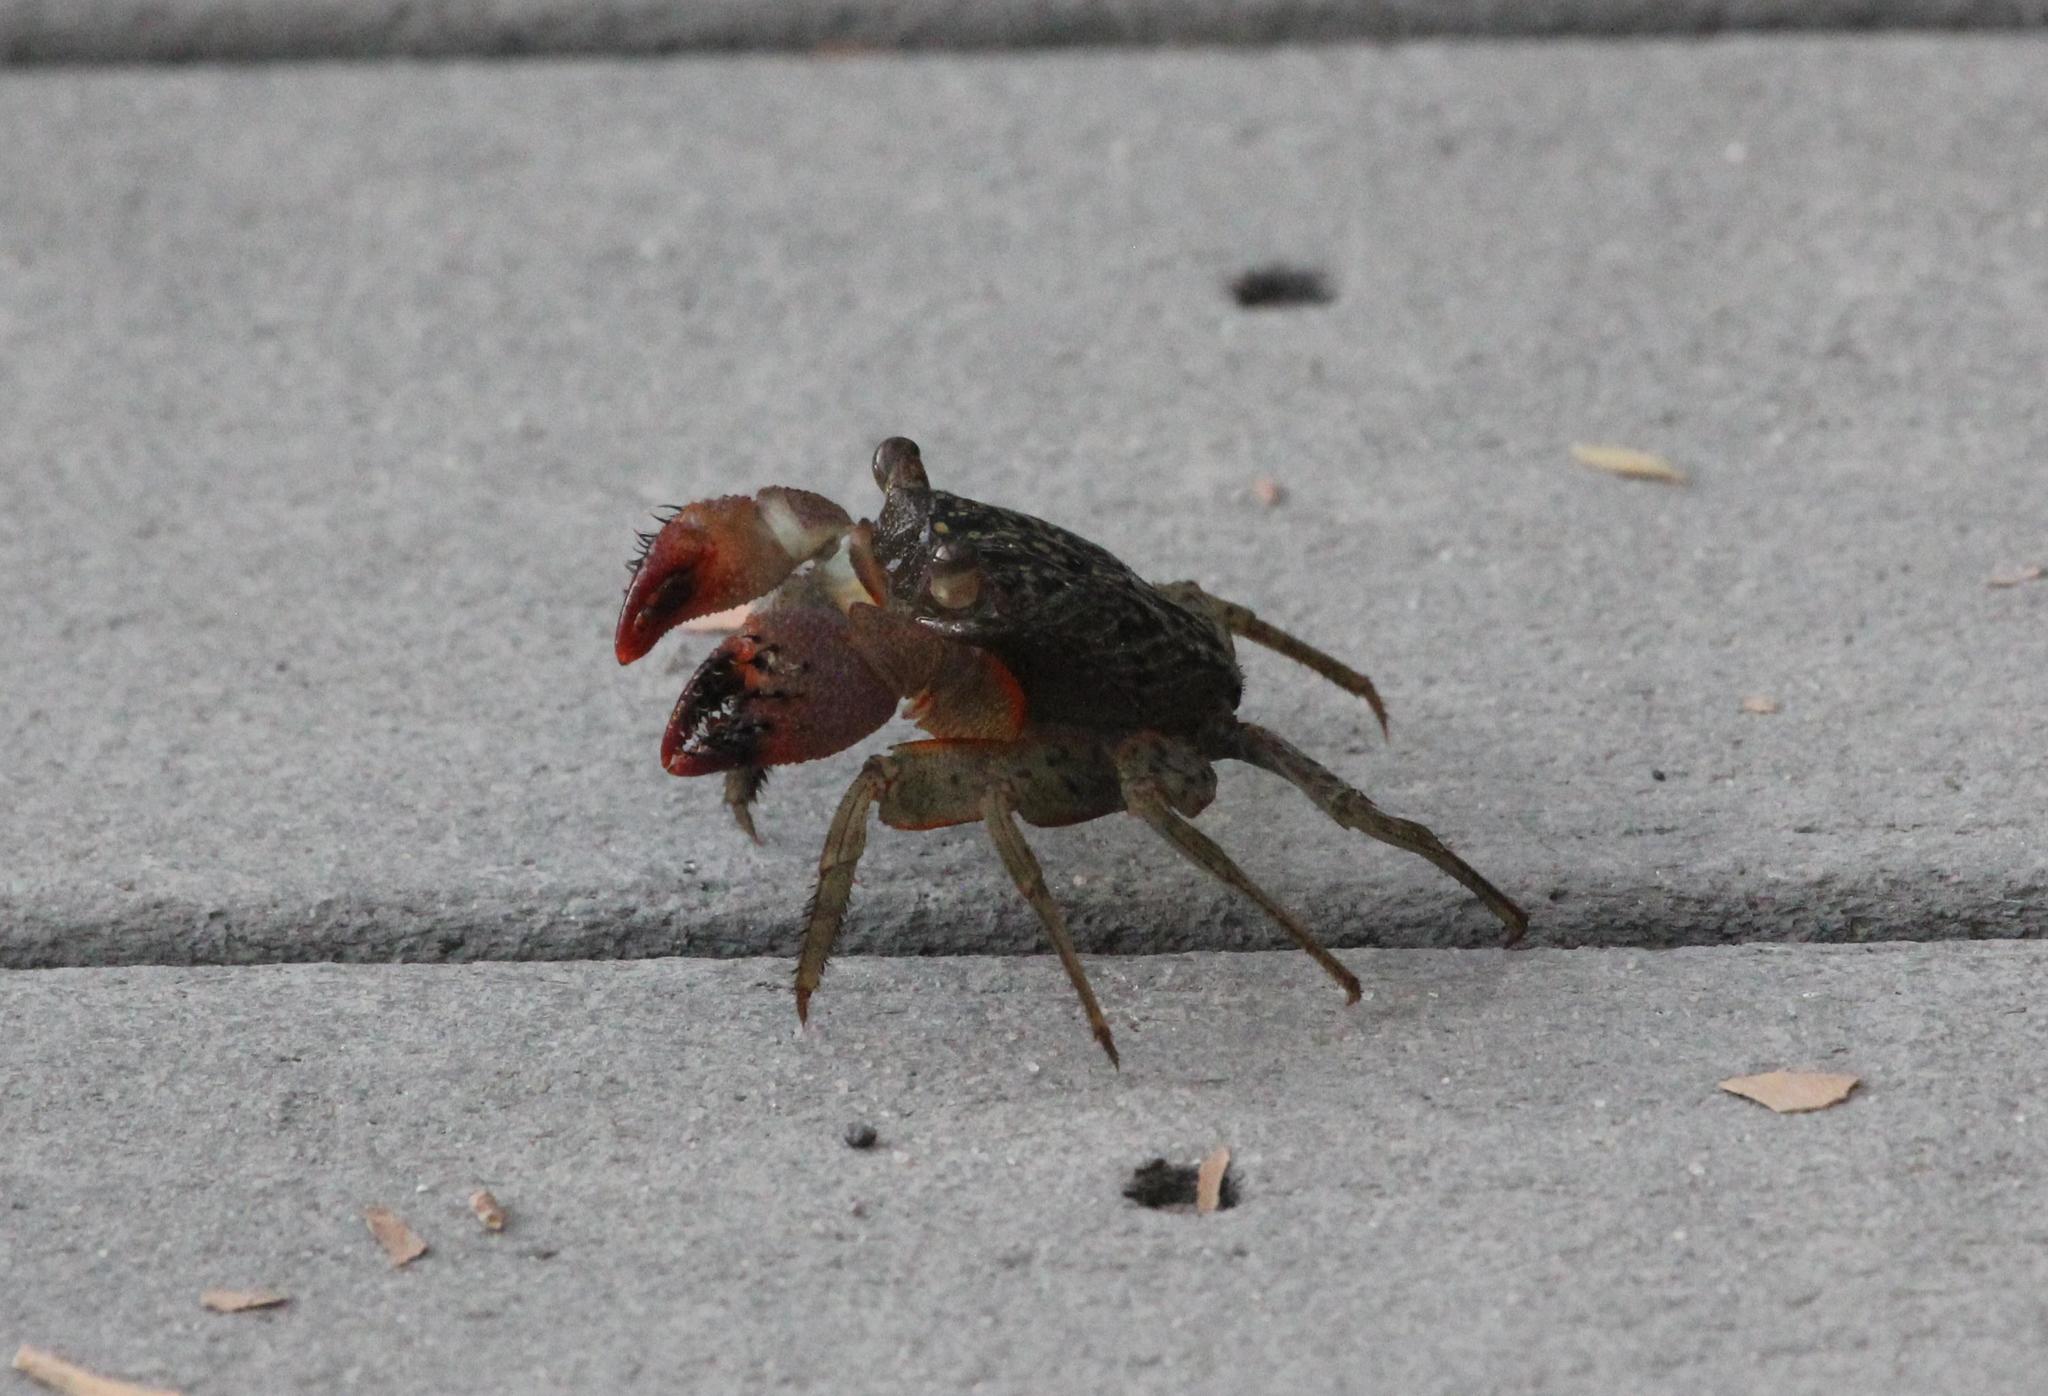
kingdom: Animalia
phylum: Arthropoda
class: Malacostraca
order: Decapoda
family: Sesarmidae
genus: Aratus
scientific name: Aratus pisonii
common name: Mangrove crab
